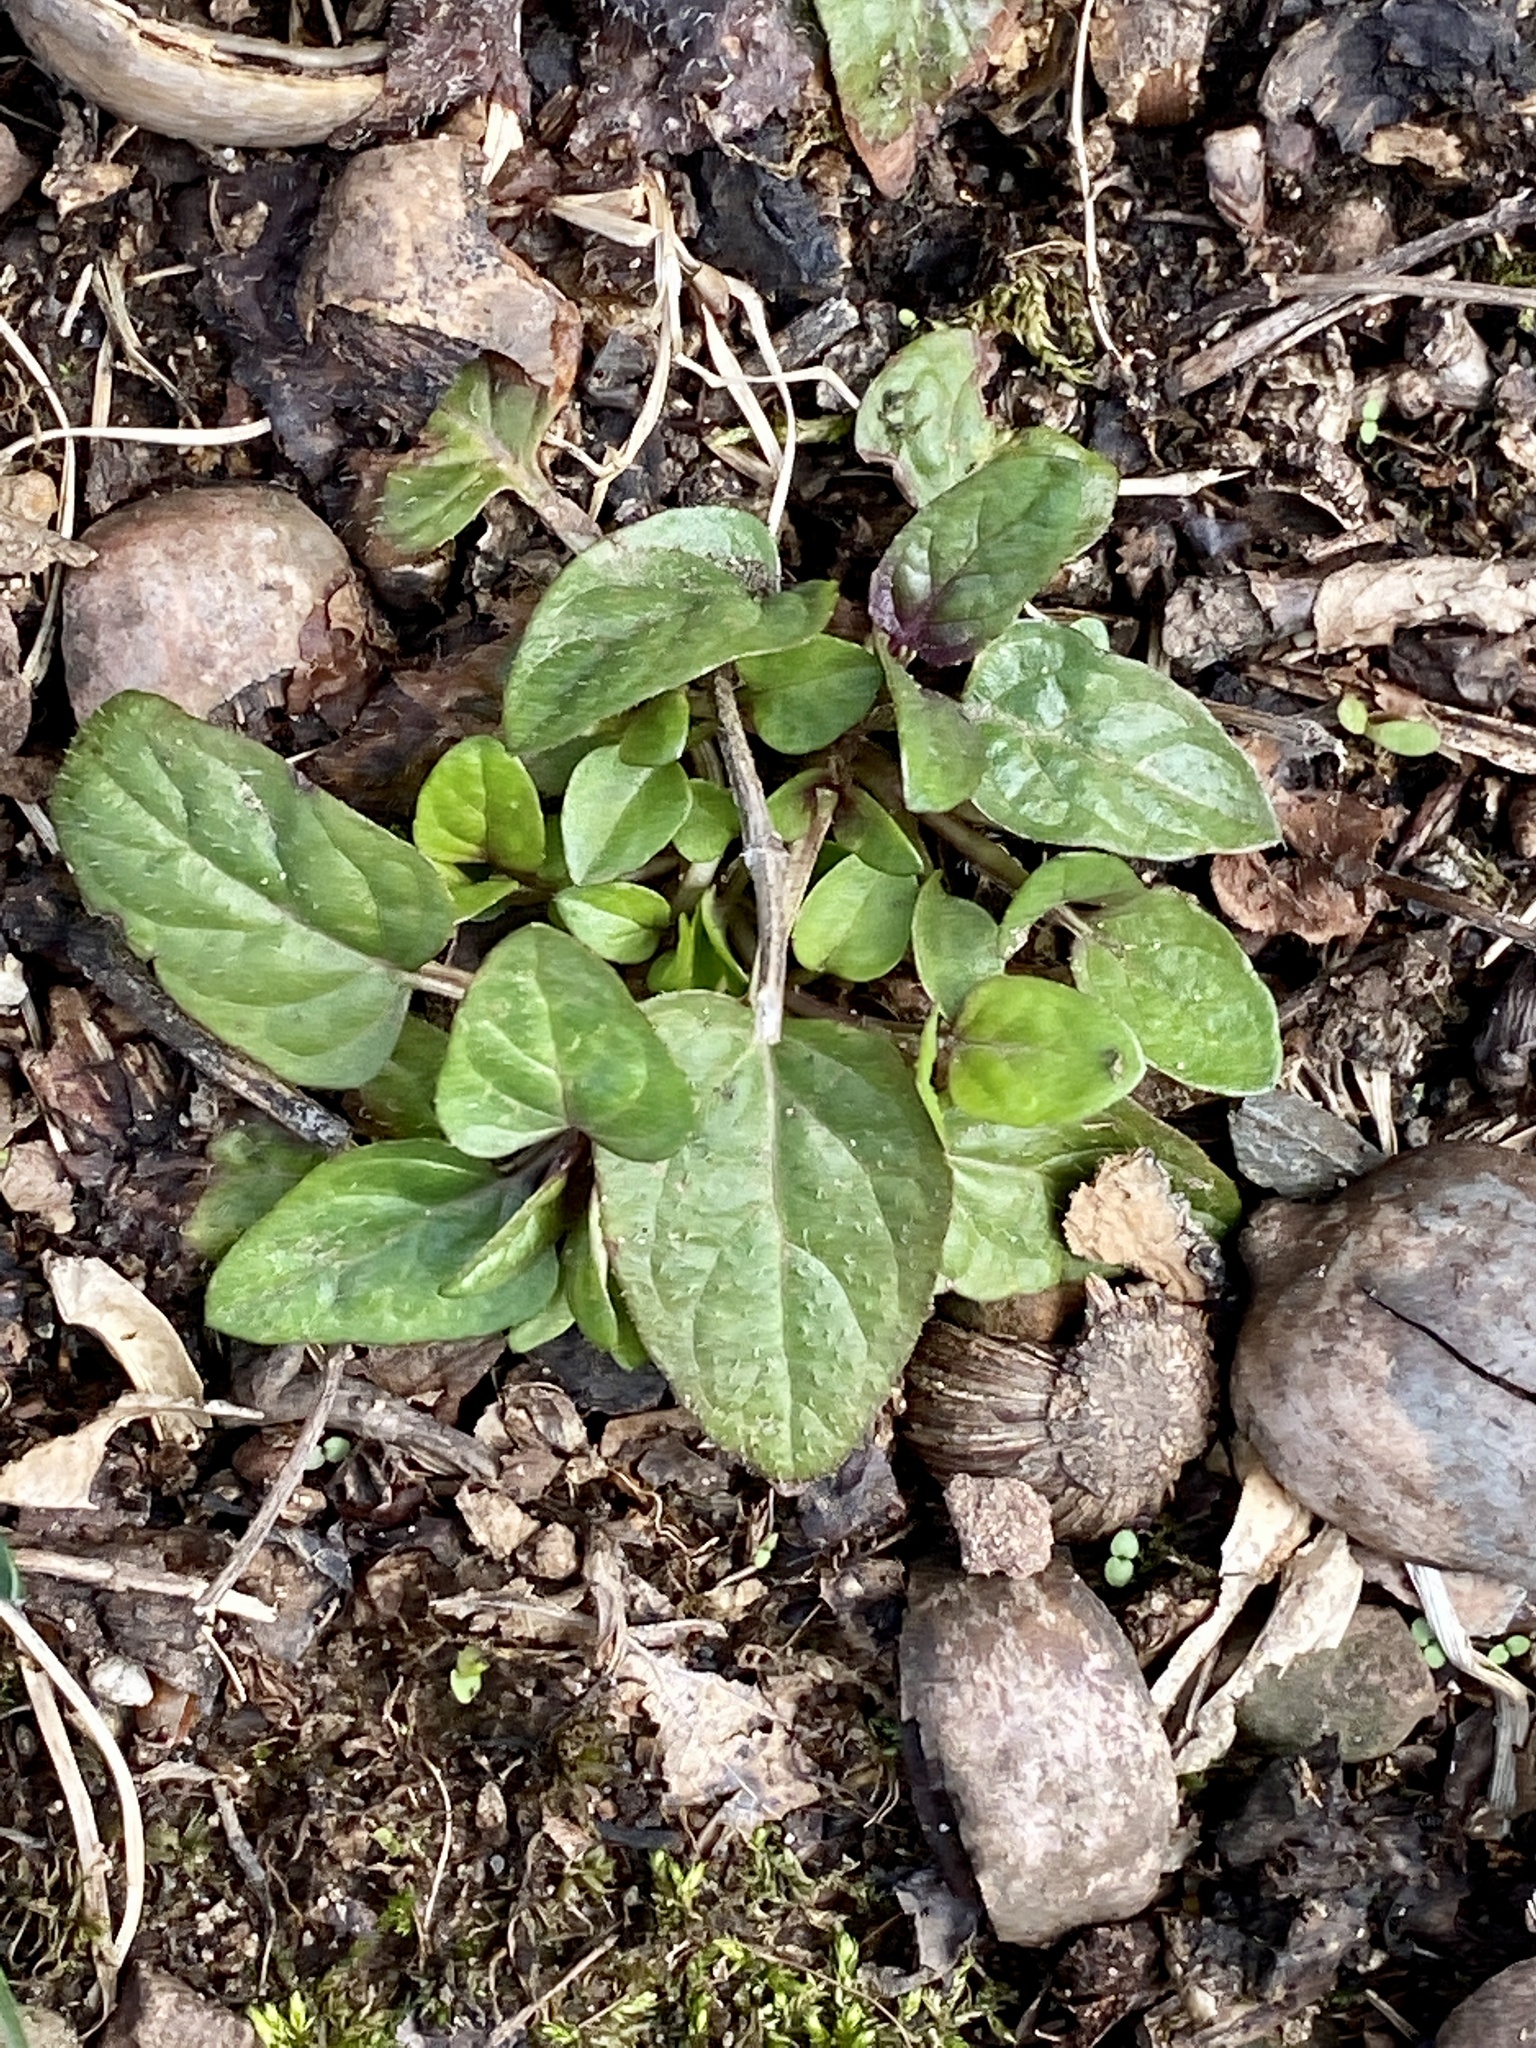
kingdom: Plantae
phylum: Tracheophyta
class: Magnoliopsida
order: Lamiales
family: Lamiaceae
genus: Prunella
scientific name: Prunella vulgaris
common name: Heal-all
